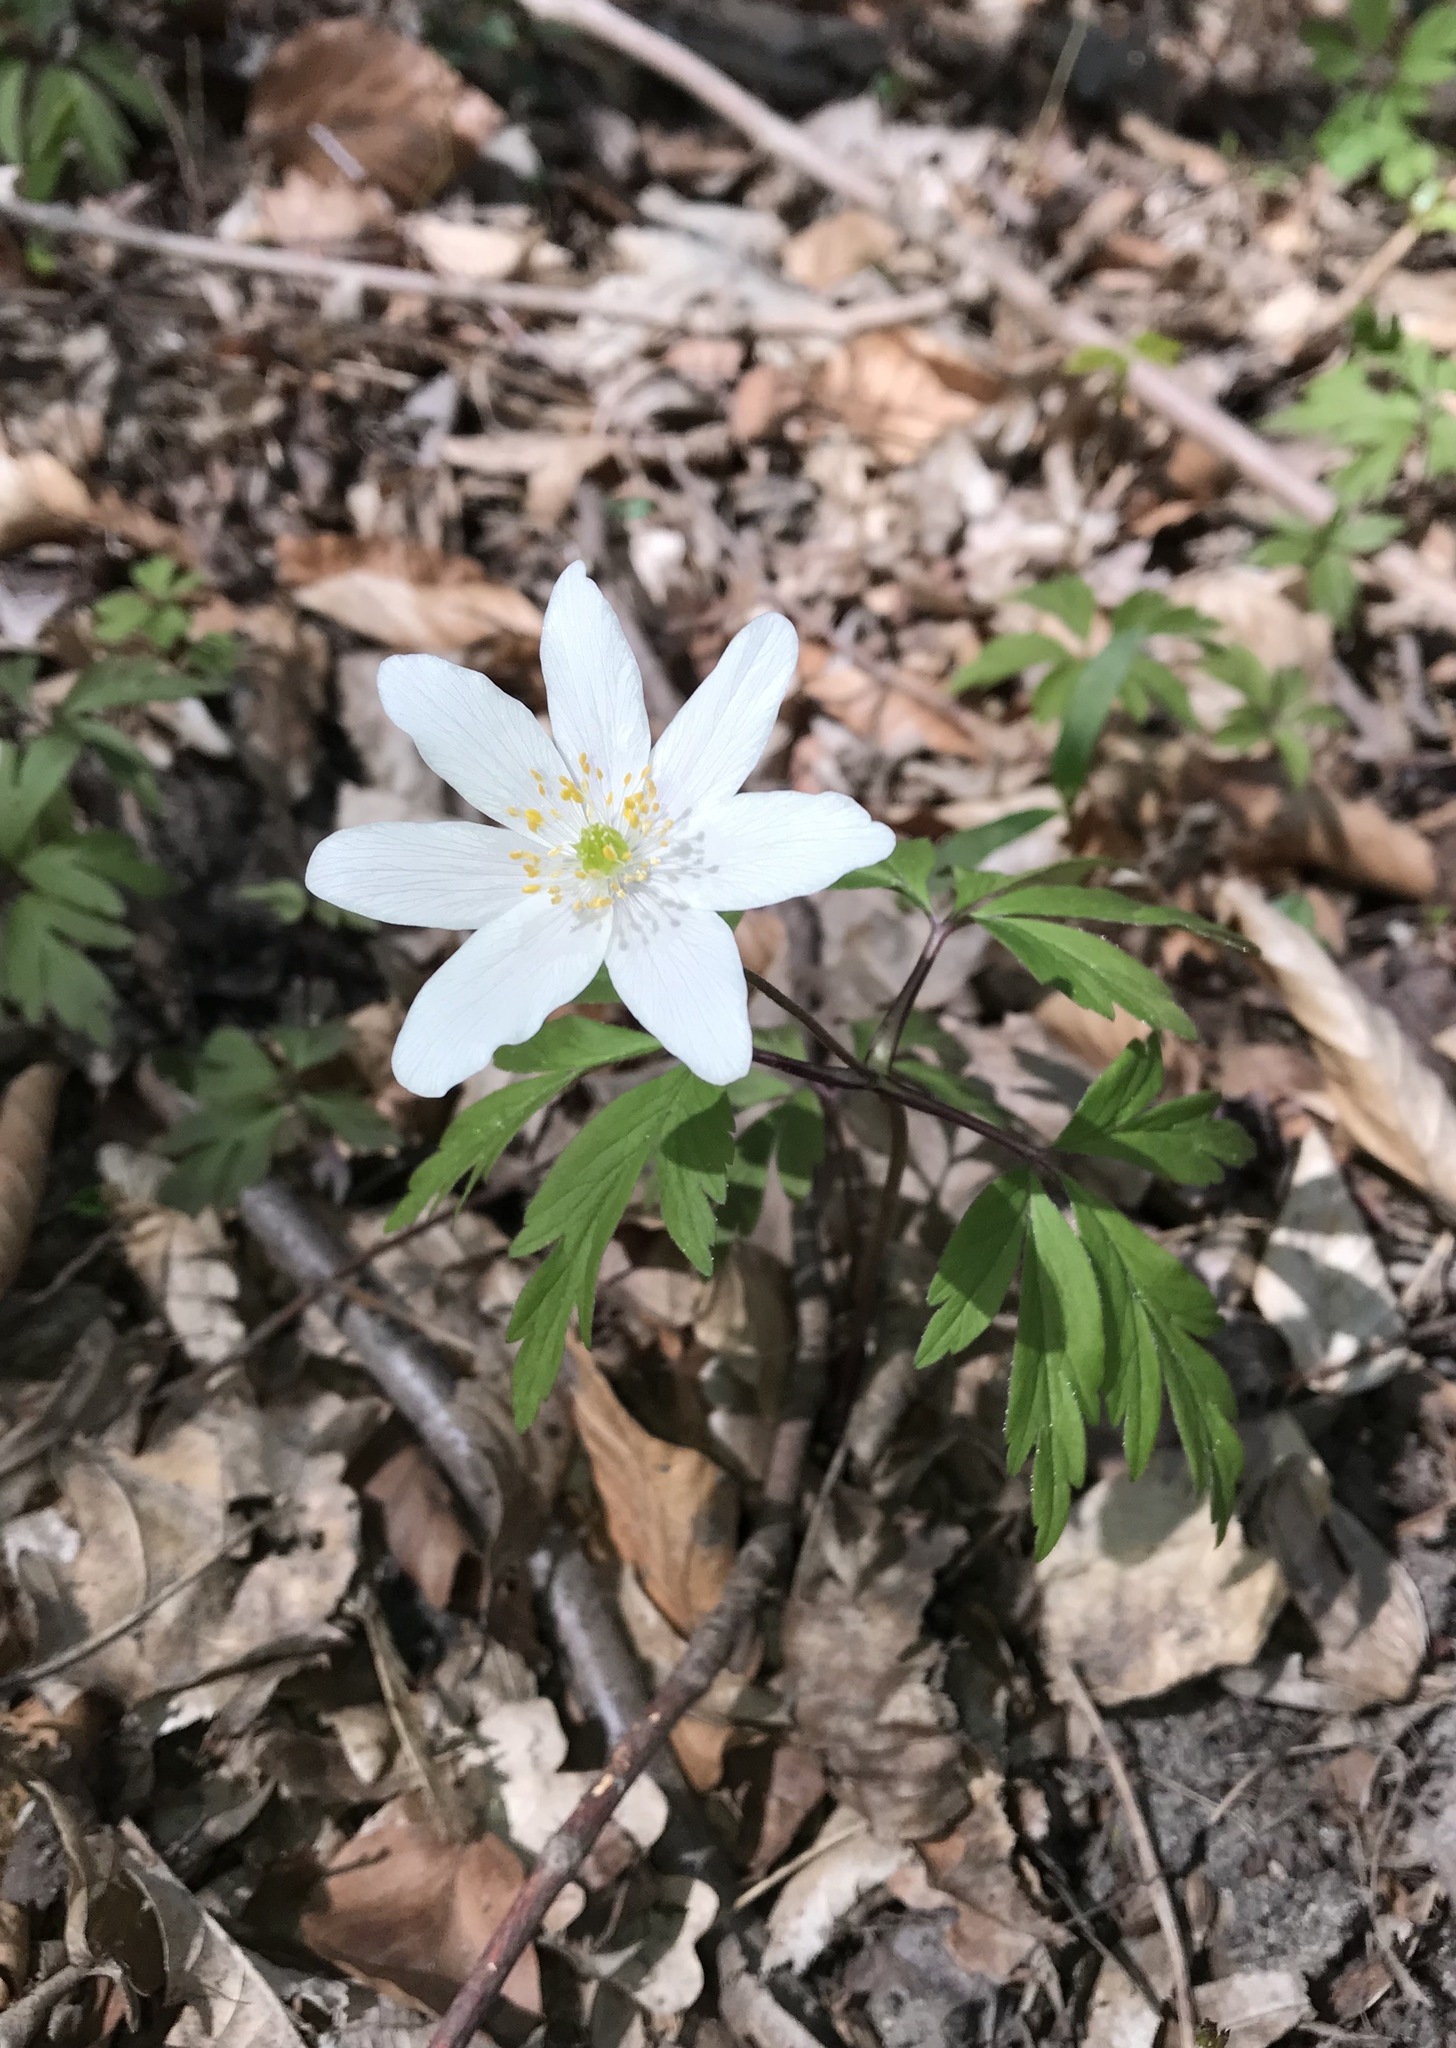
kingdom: Plantae
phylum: Tracheophyta
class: Magnoliopsida
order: Ranunculales
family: Ranunculaceae
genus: Anemone
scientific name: Anemone nemorosa
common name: Wood anemone
